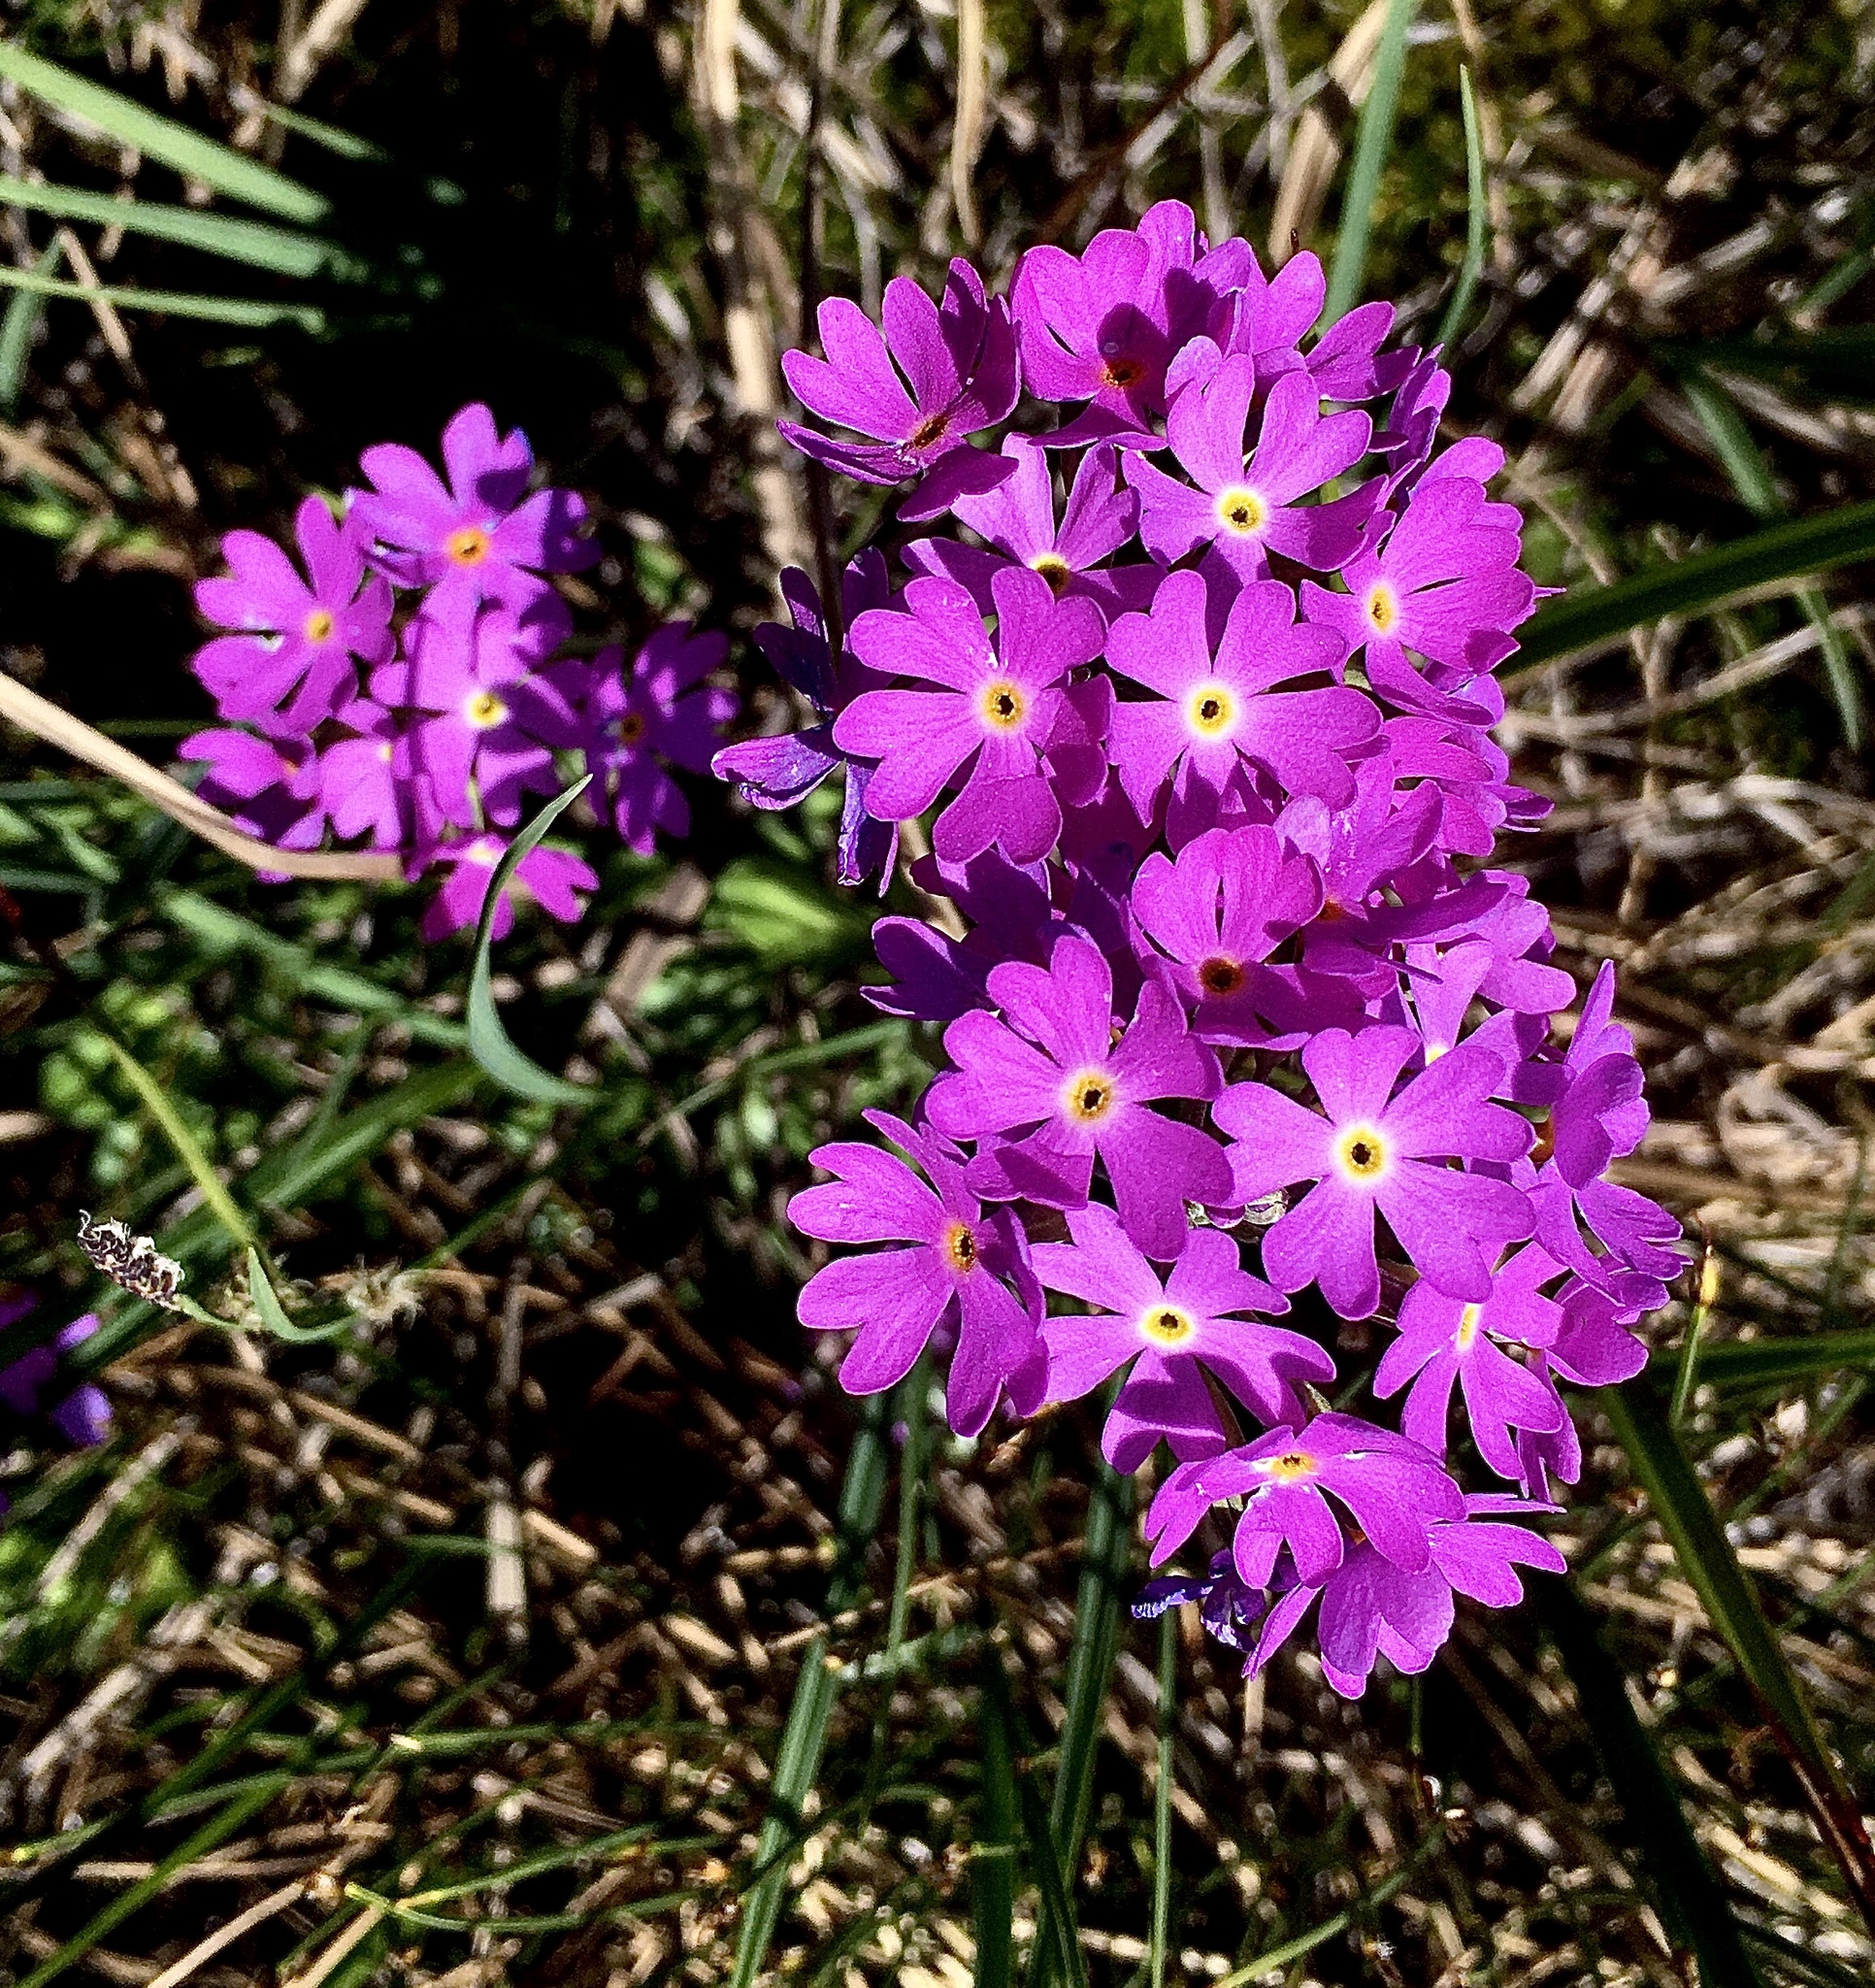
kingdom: Plantae
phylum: Tracheophyta
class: Magnoliopsida
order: Ericales
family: Primulaceae
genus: Primula
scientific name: Primula farinosa
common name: Bird's-eye primrose
